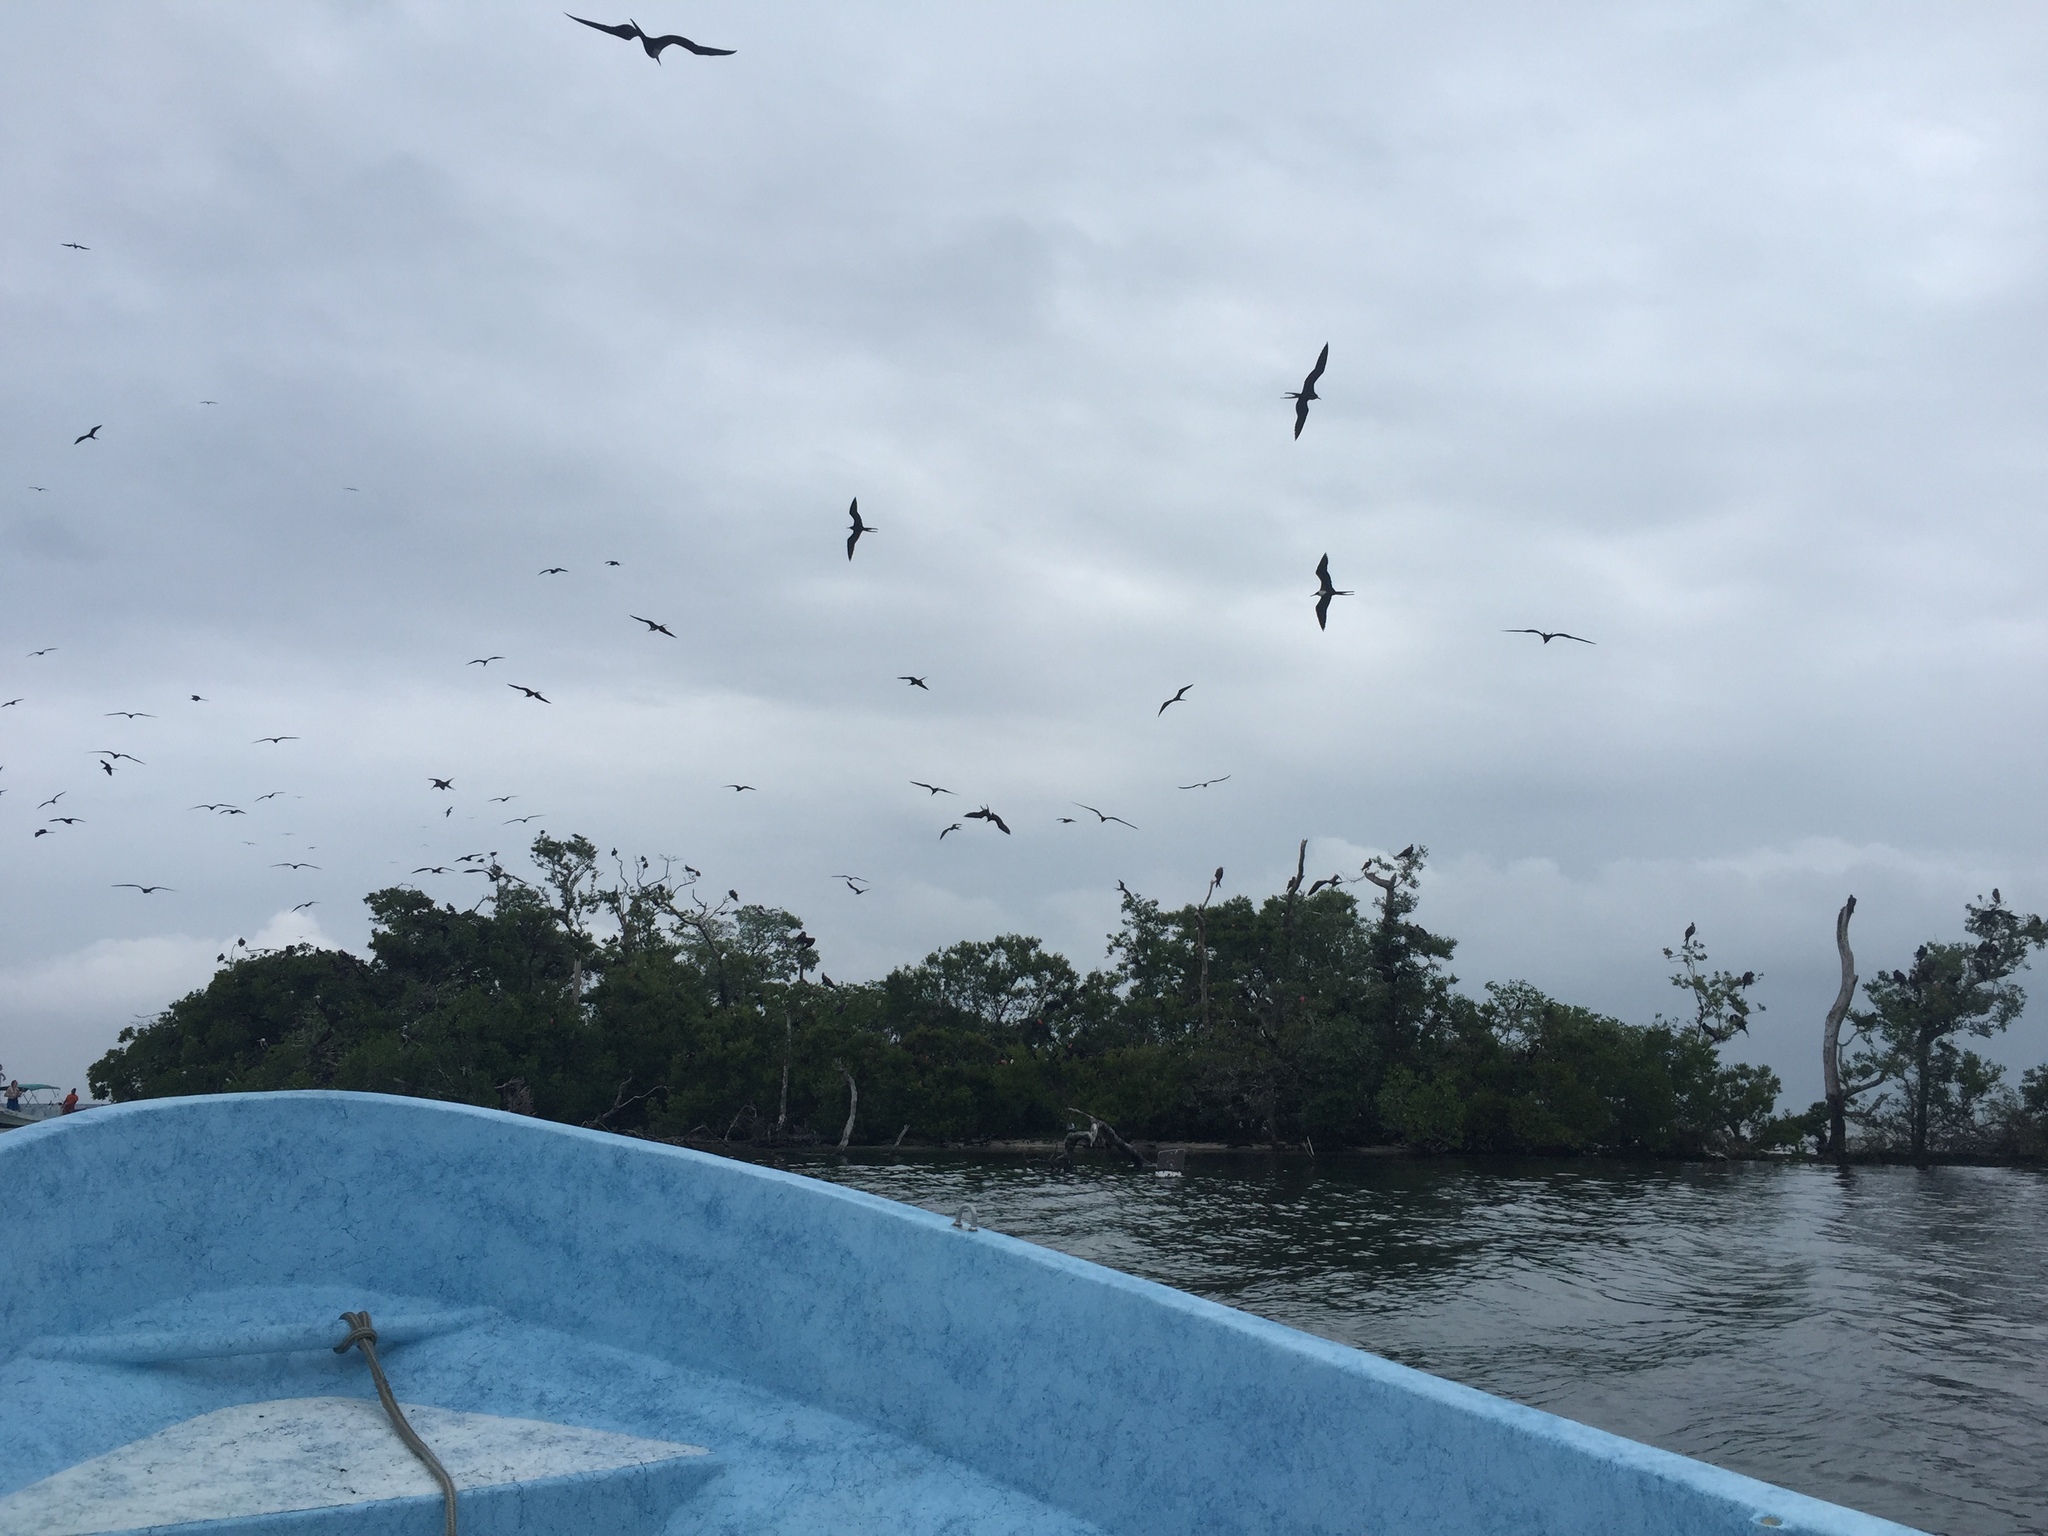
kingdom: Animalia
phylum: Chordata
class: Aves
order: Suliformes
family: Fregatidae
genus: Fregata
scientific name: Fregata magnificens
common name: Magnificent frigatebird
